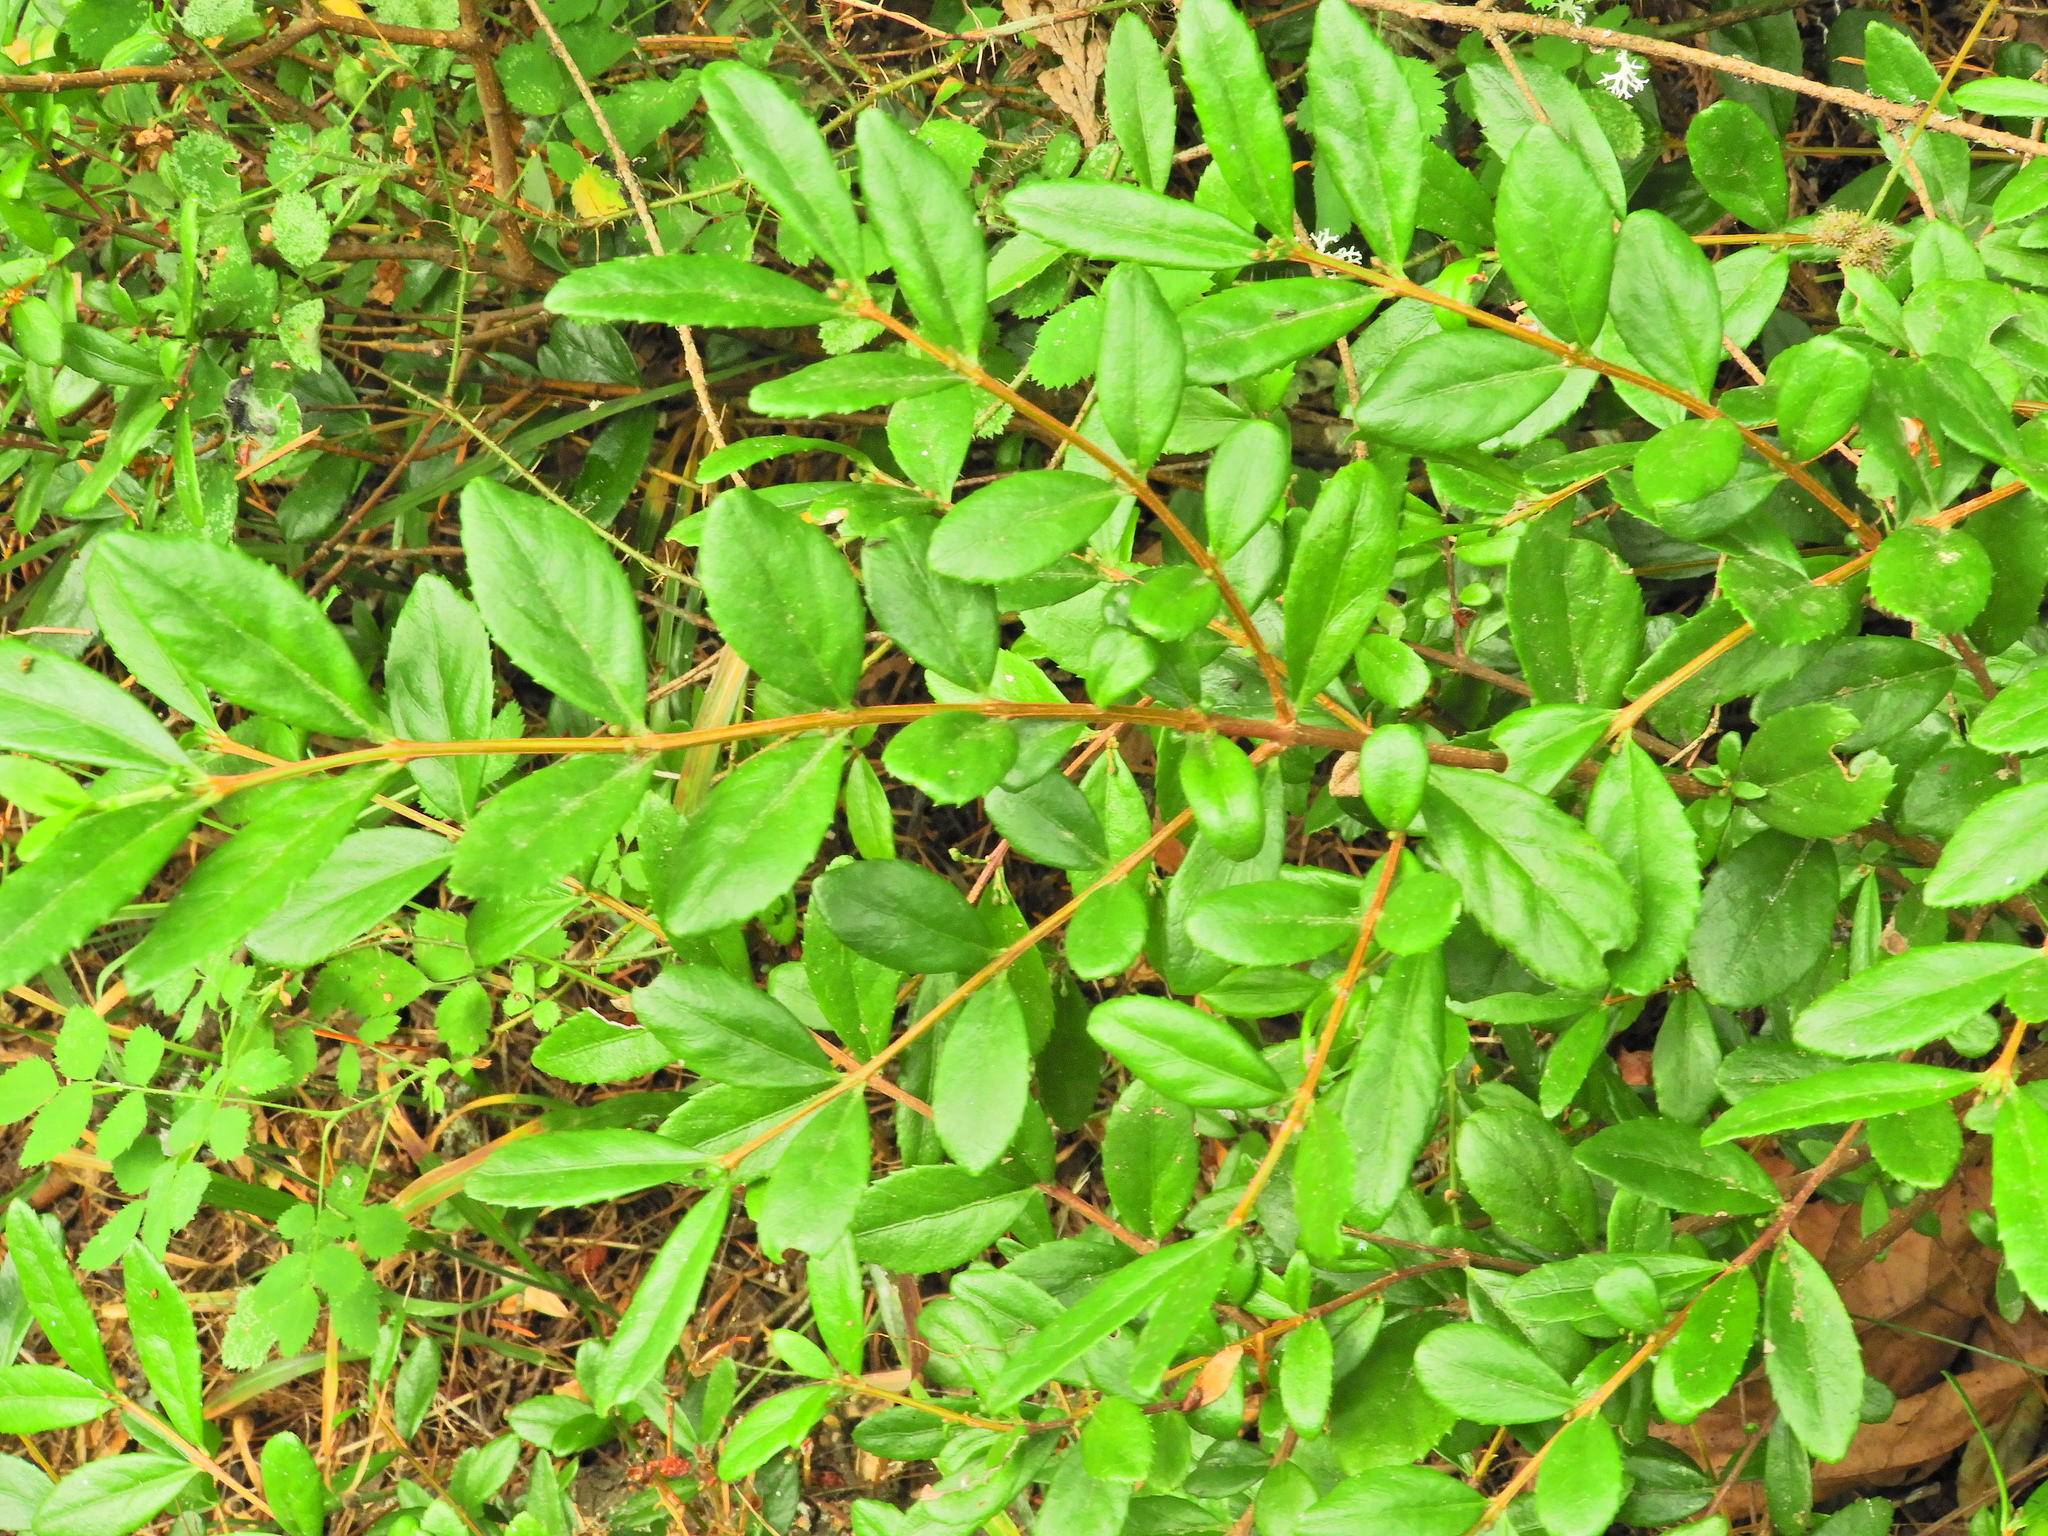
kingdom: Plantae
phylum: Tracheophyta
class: Magnoliopsida
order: Celastrales
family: Celastraceae
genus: Paxistima
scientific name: Paxistima myrsinites
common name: Mountain-lover
